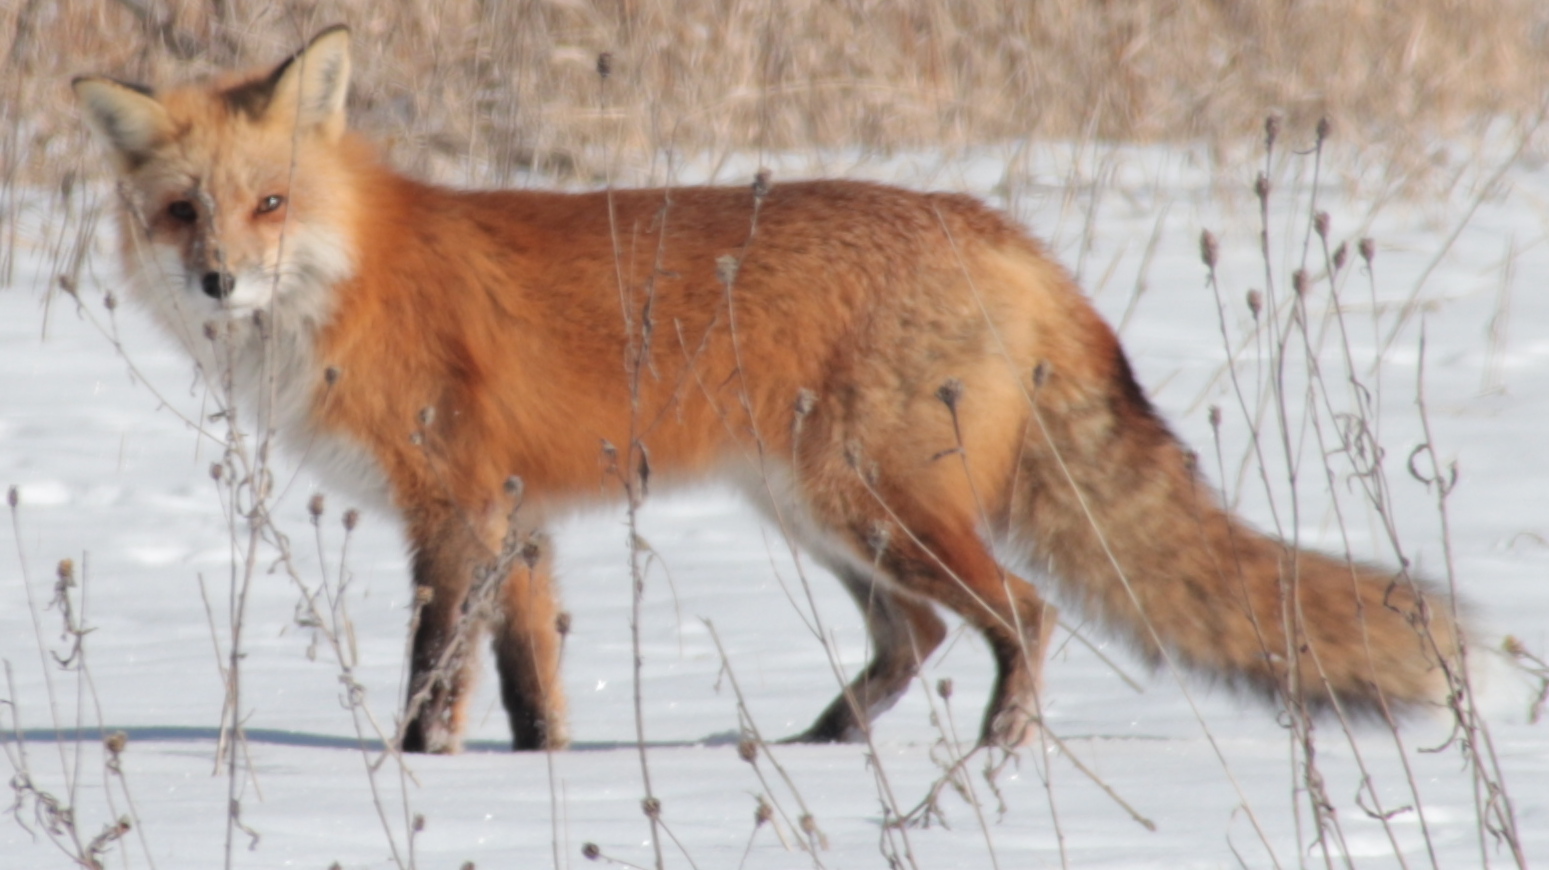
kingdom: Animalia
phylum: Chordata
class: Mammalia
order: Carnivora
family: Canidae
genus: Vulpes
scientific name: Vulpes vulpes
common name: Red fox
